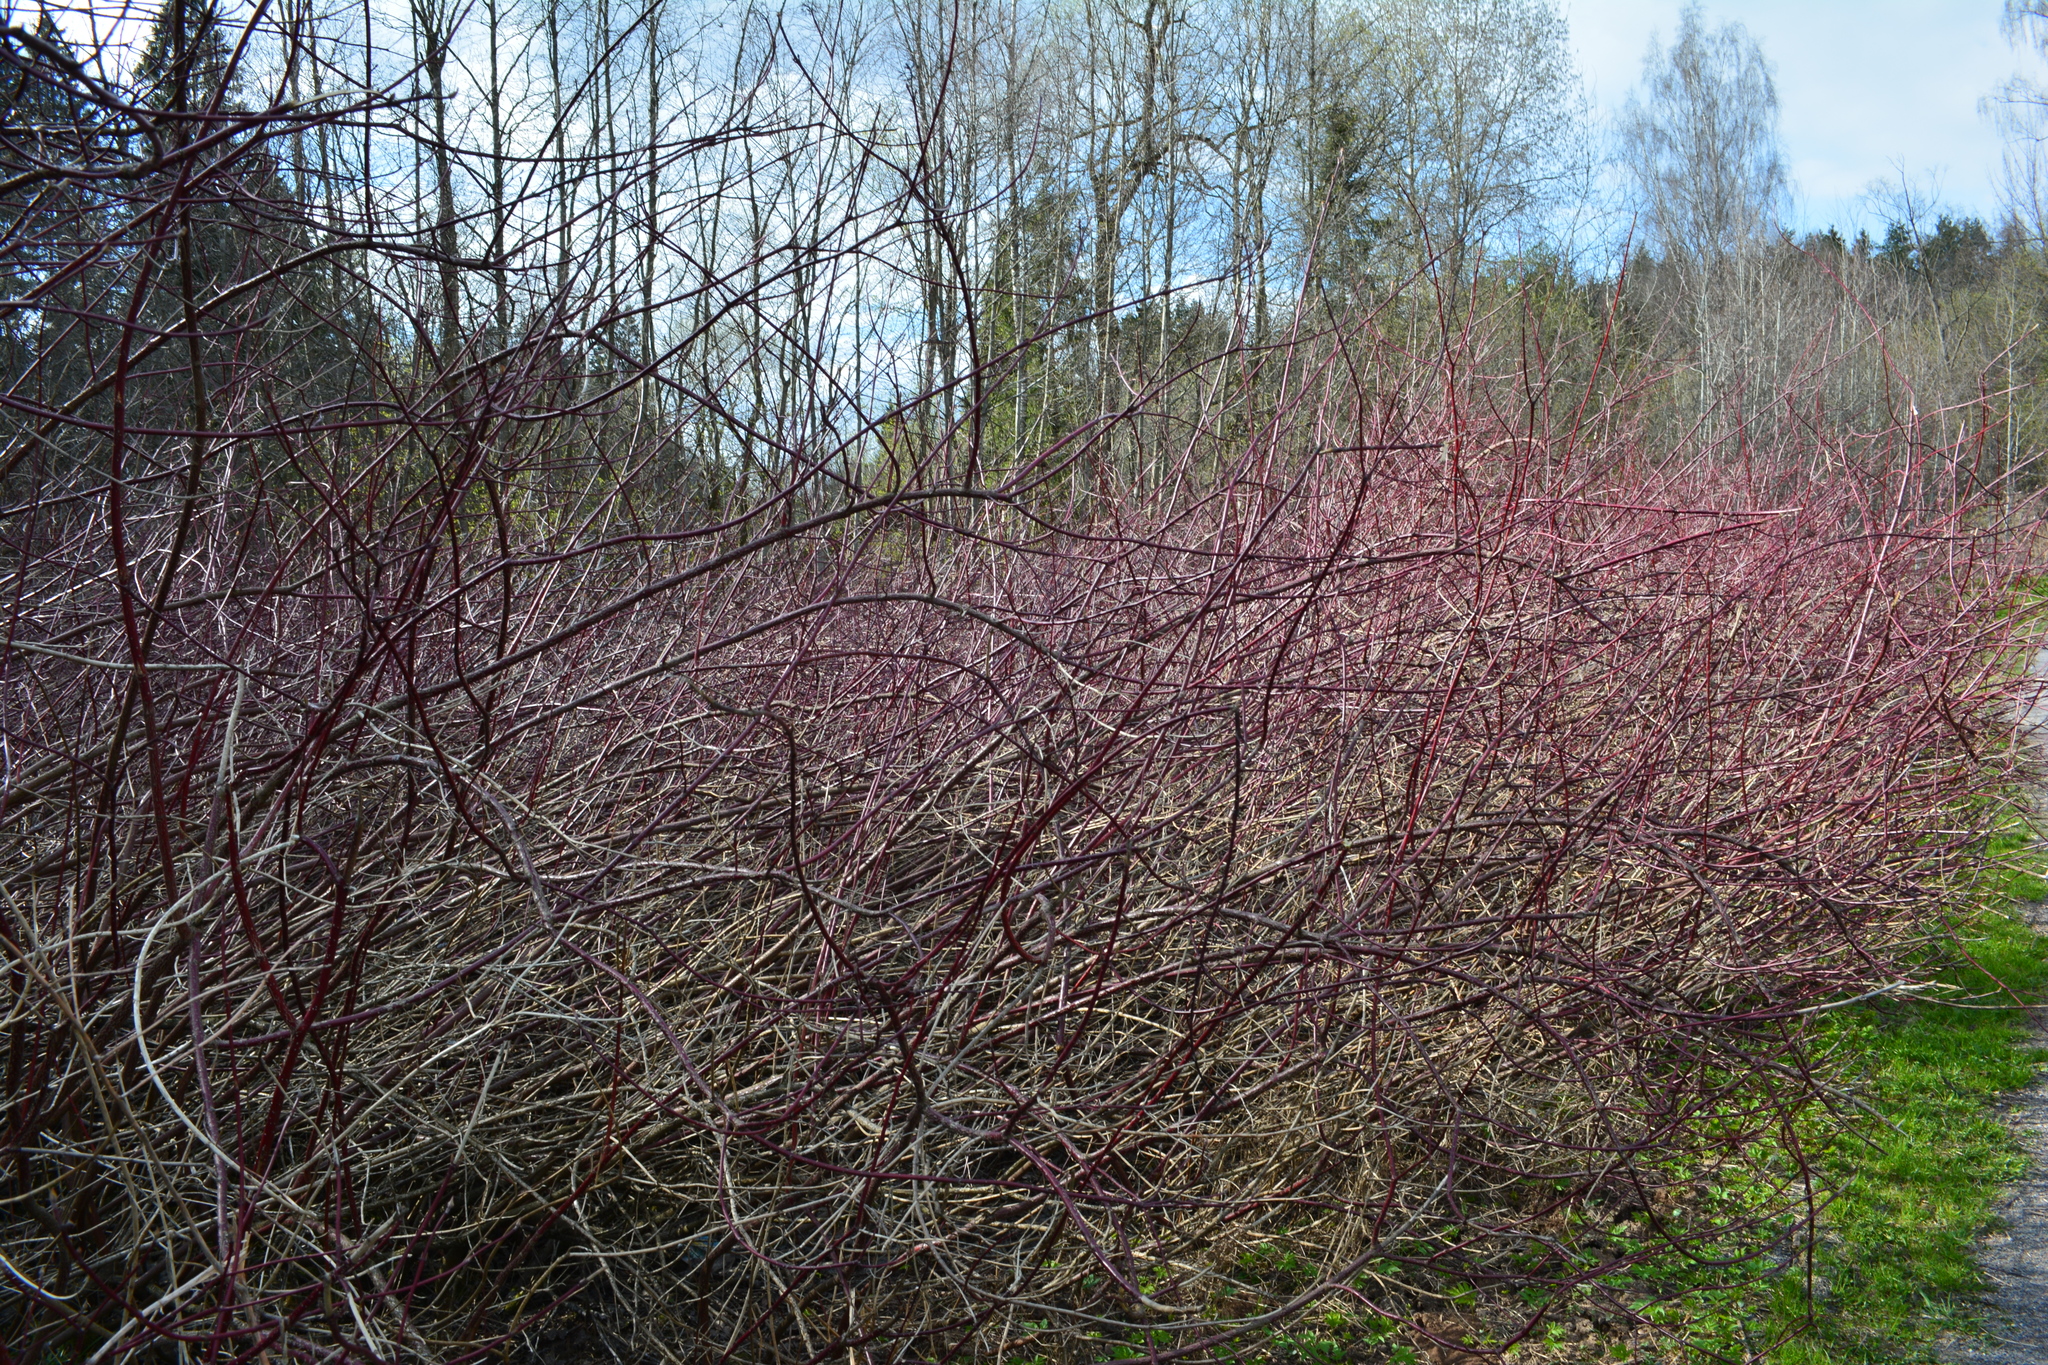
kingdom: Plantae
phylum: Tracheophyta
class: Magnoliopsida
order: Cornales
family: Cornaceae
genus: Cornus
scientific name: Cornus sericea
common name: Red-osier dogwood
